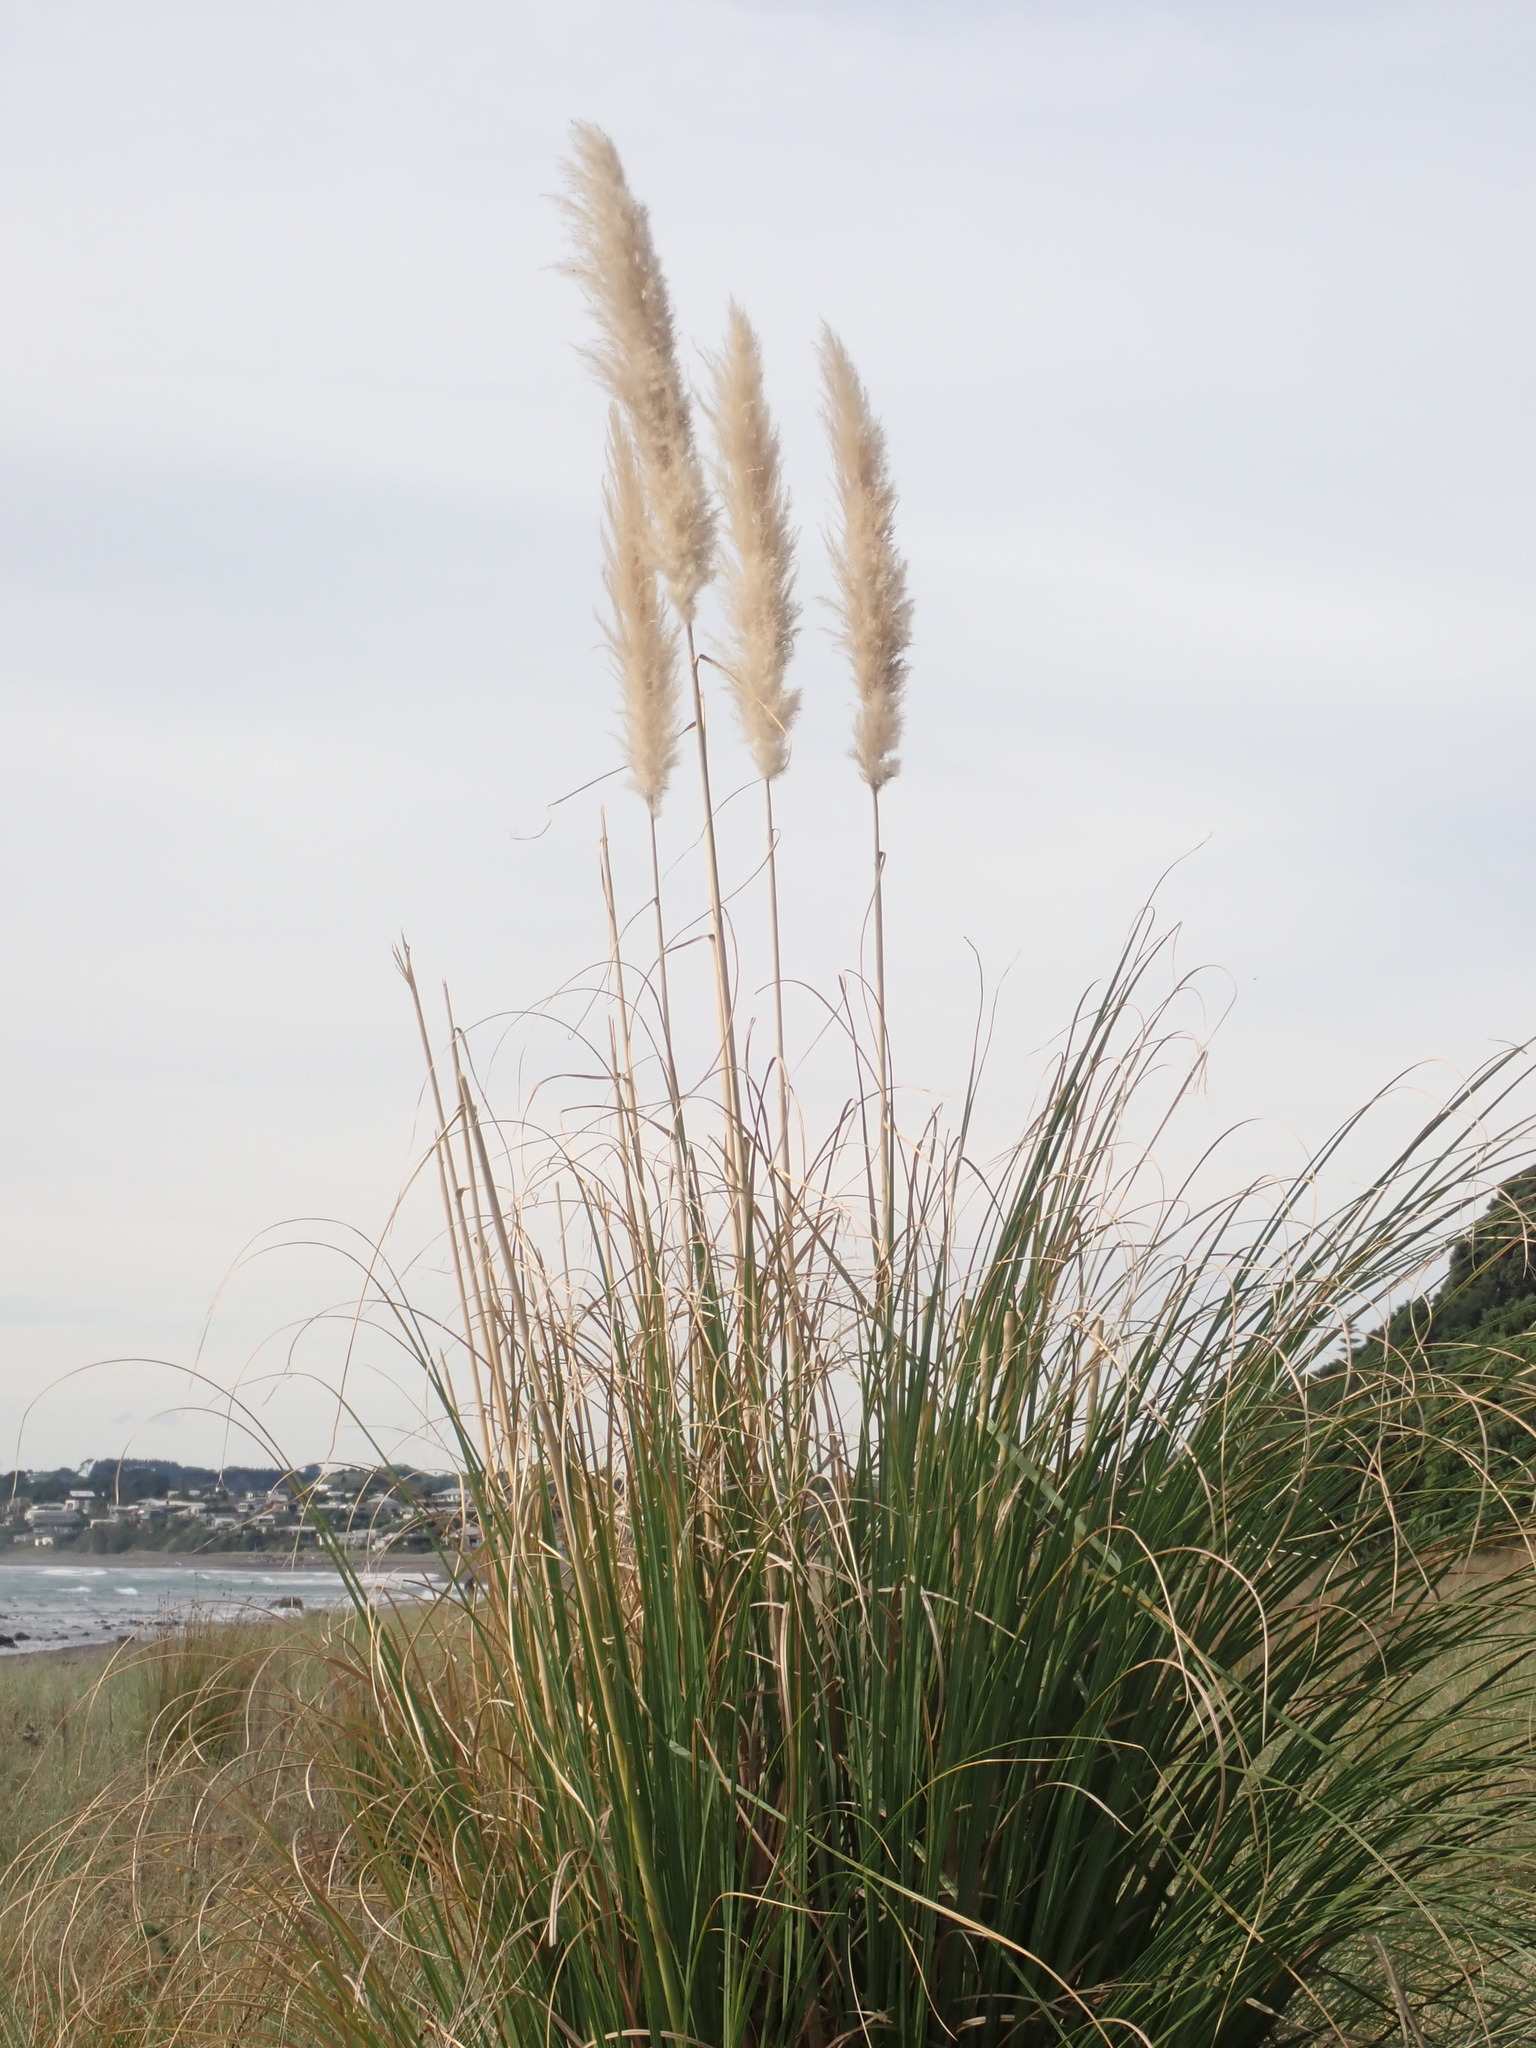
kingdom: Plantae
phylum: Tracheophyta
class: Liliopsida
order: Poales
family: Poaceae
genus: Cortaderia
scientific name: Cortaderia selloana
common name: Uruguayan pampas grass
